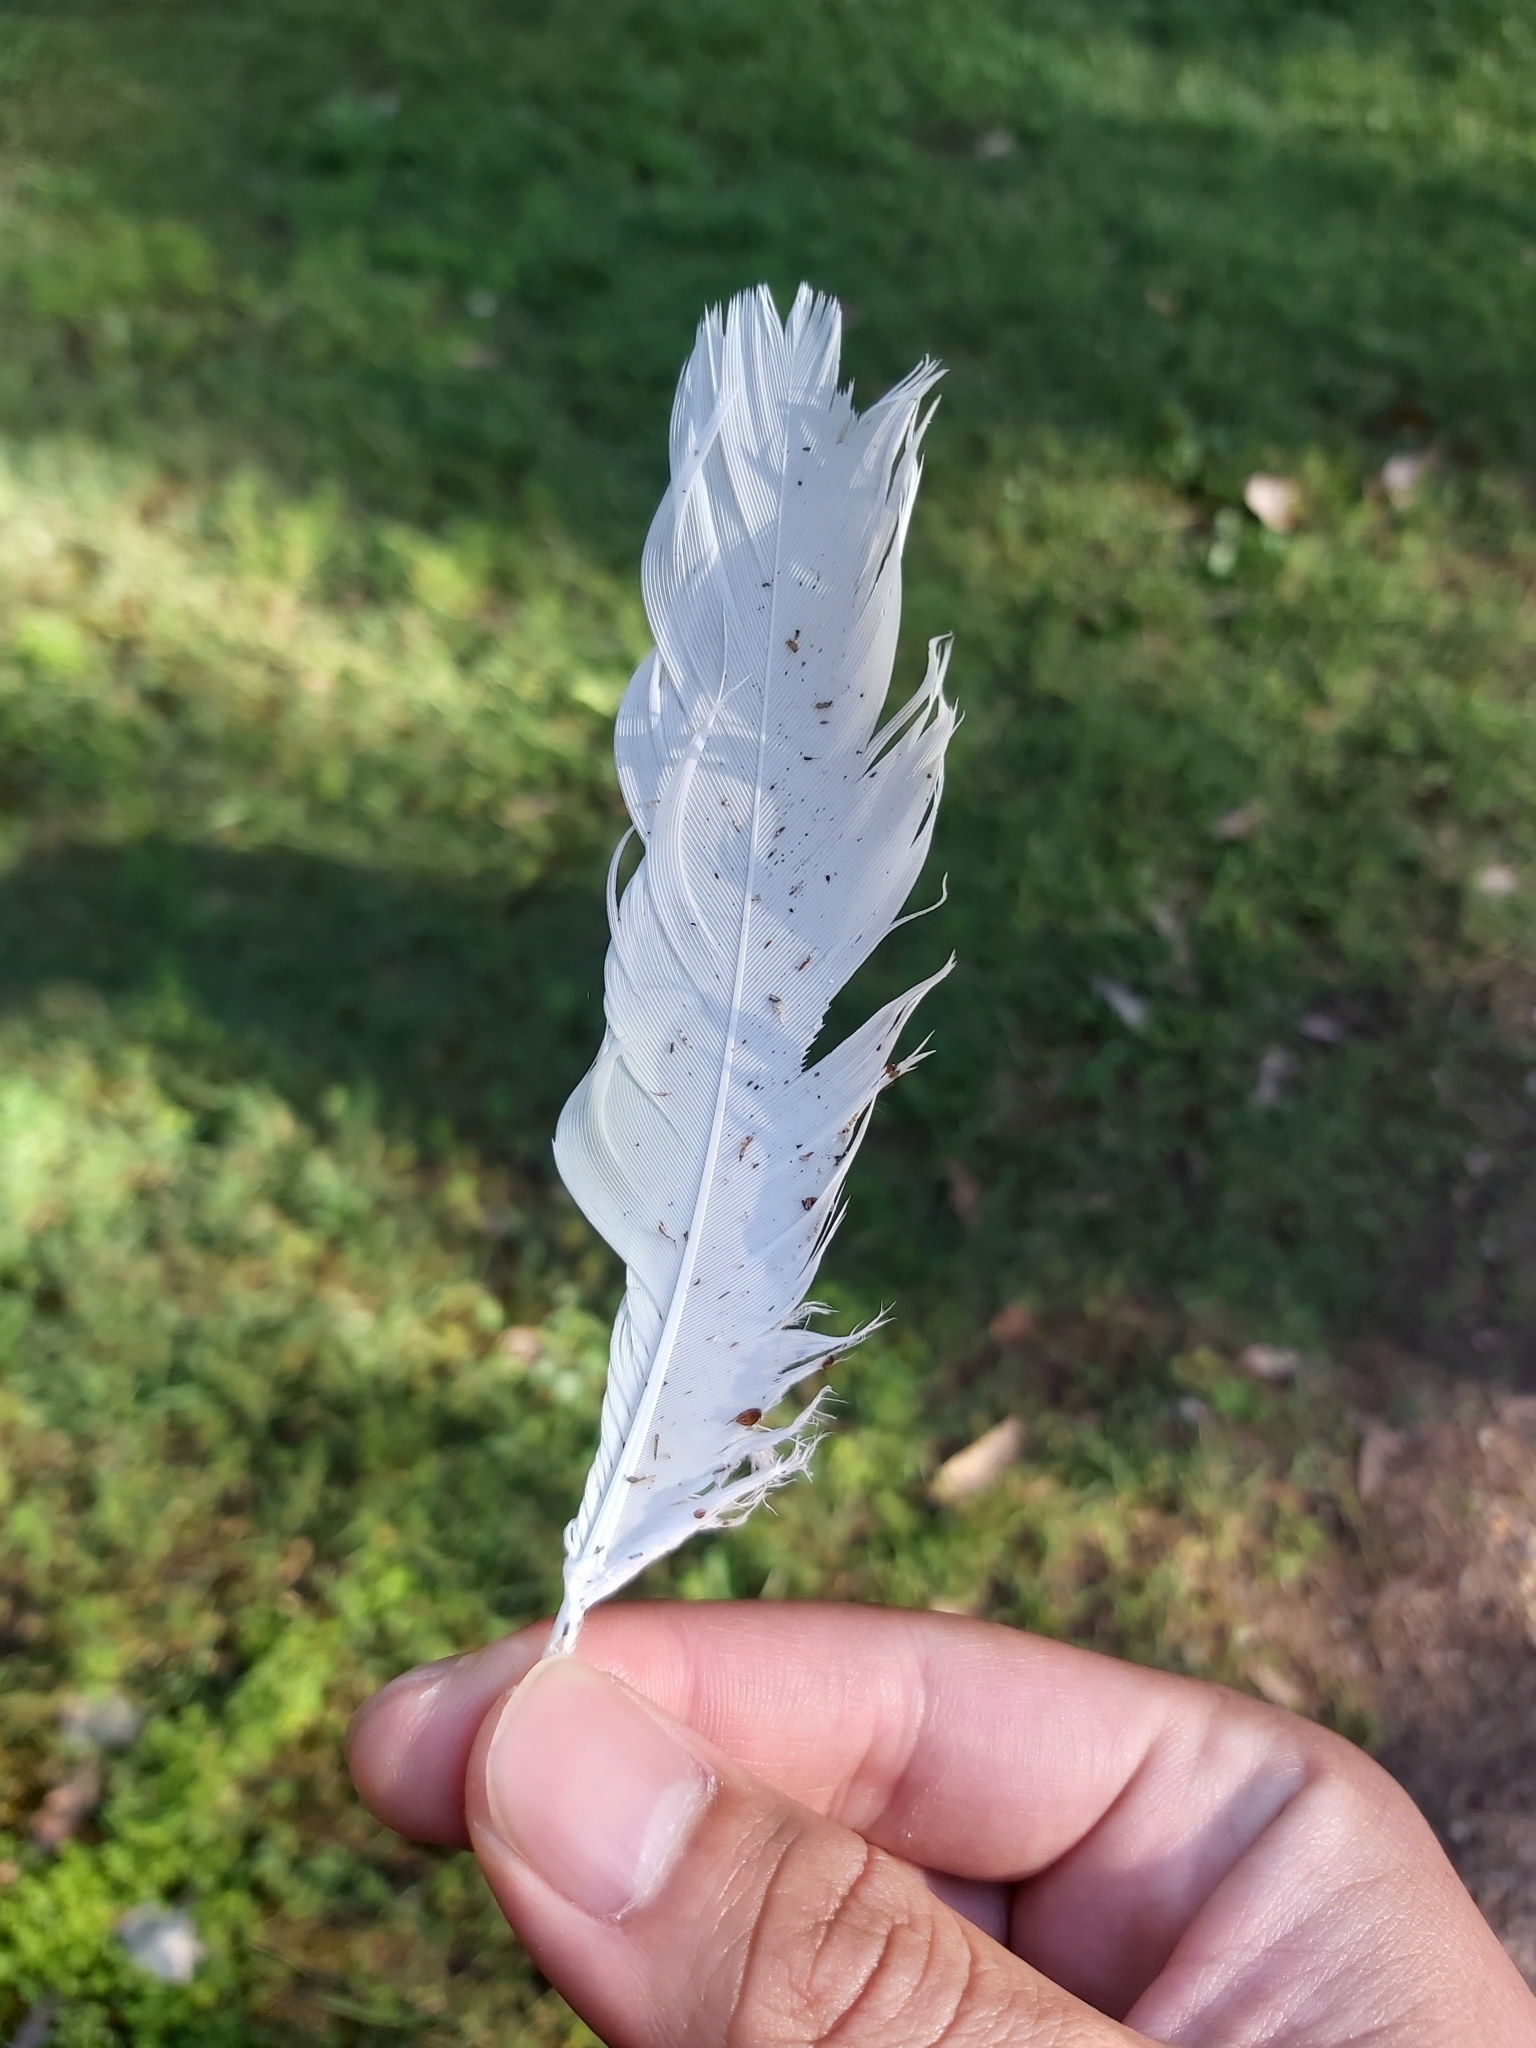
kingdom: Animalia
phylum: Chordata
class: Aves
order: Psittaciformes
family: Psittacidae
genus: Cacatua
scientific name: Cacatua galerita
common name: Sulphur-crested cockatoo
